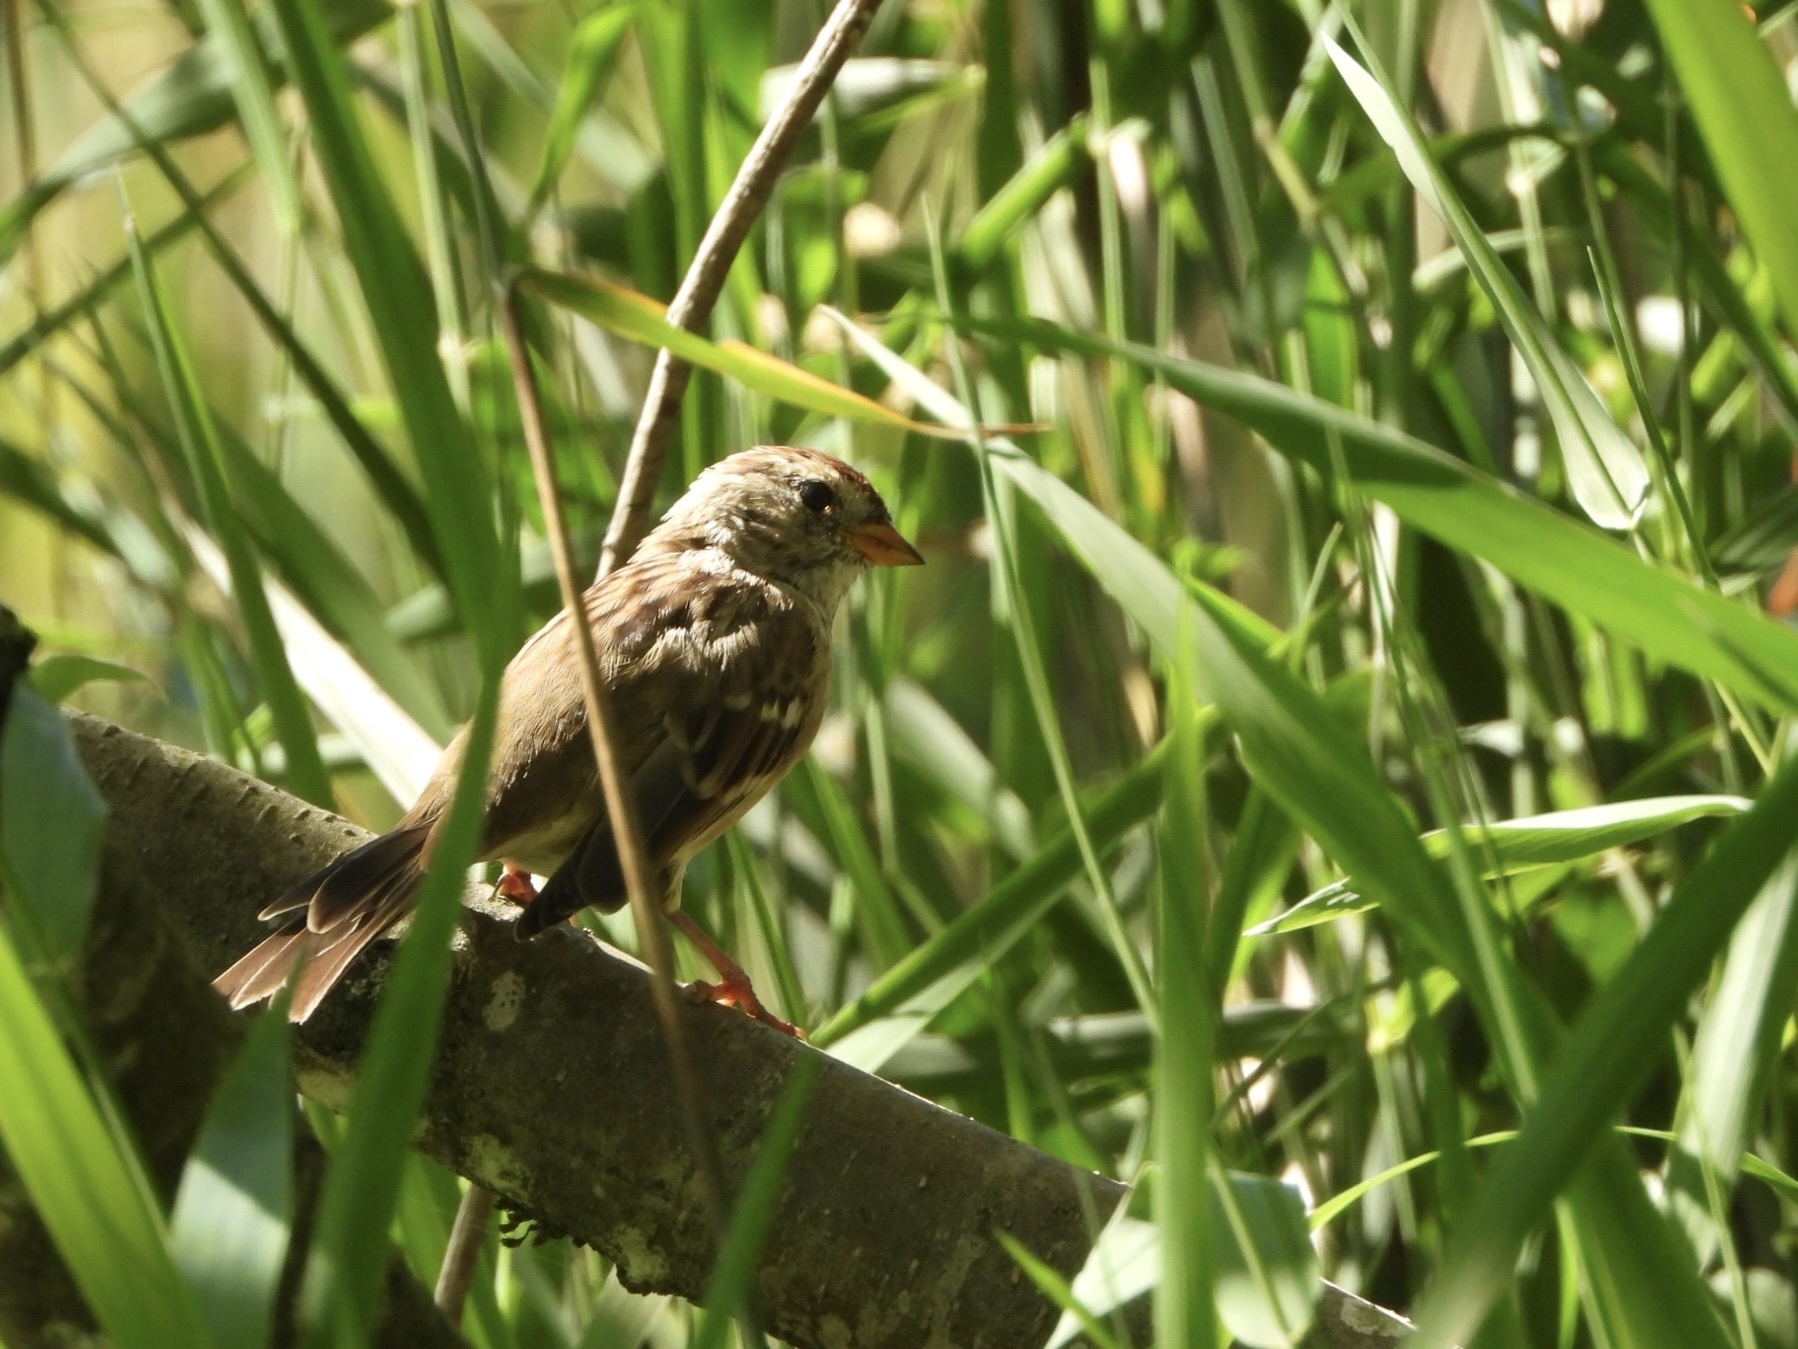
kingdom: Animalia
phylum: Chordata
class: Aves
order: Passeriformes
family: Passerellidae
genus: Zonotrichia
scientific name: Zonotrichia leucophrys
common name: White-crowned sparrow
